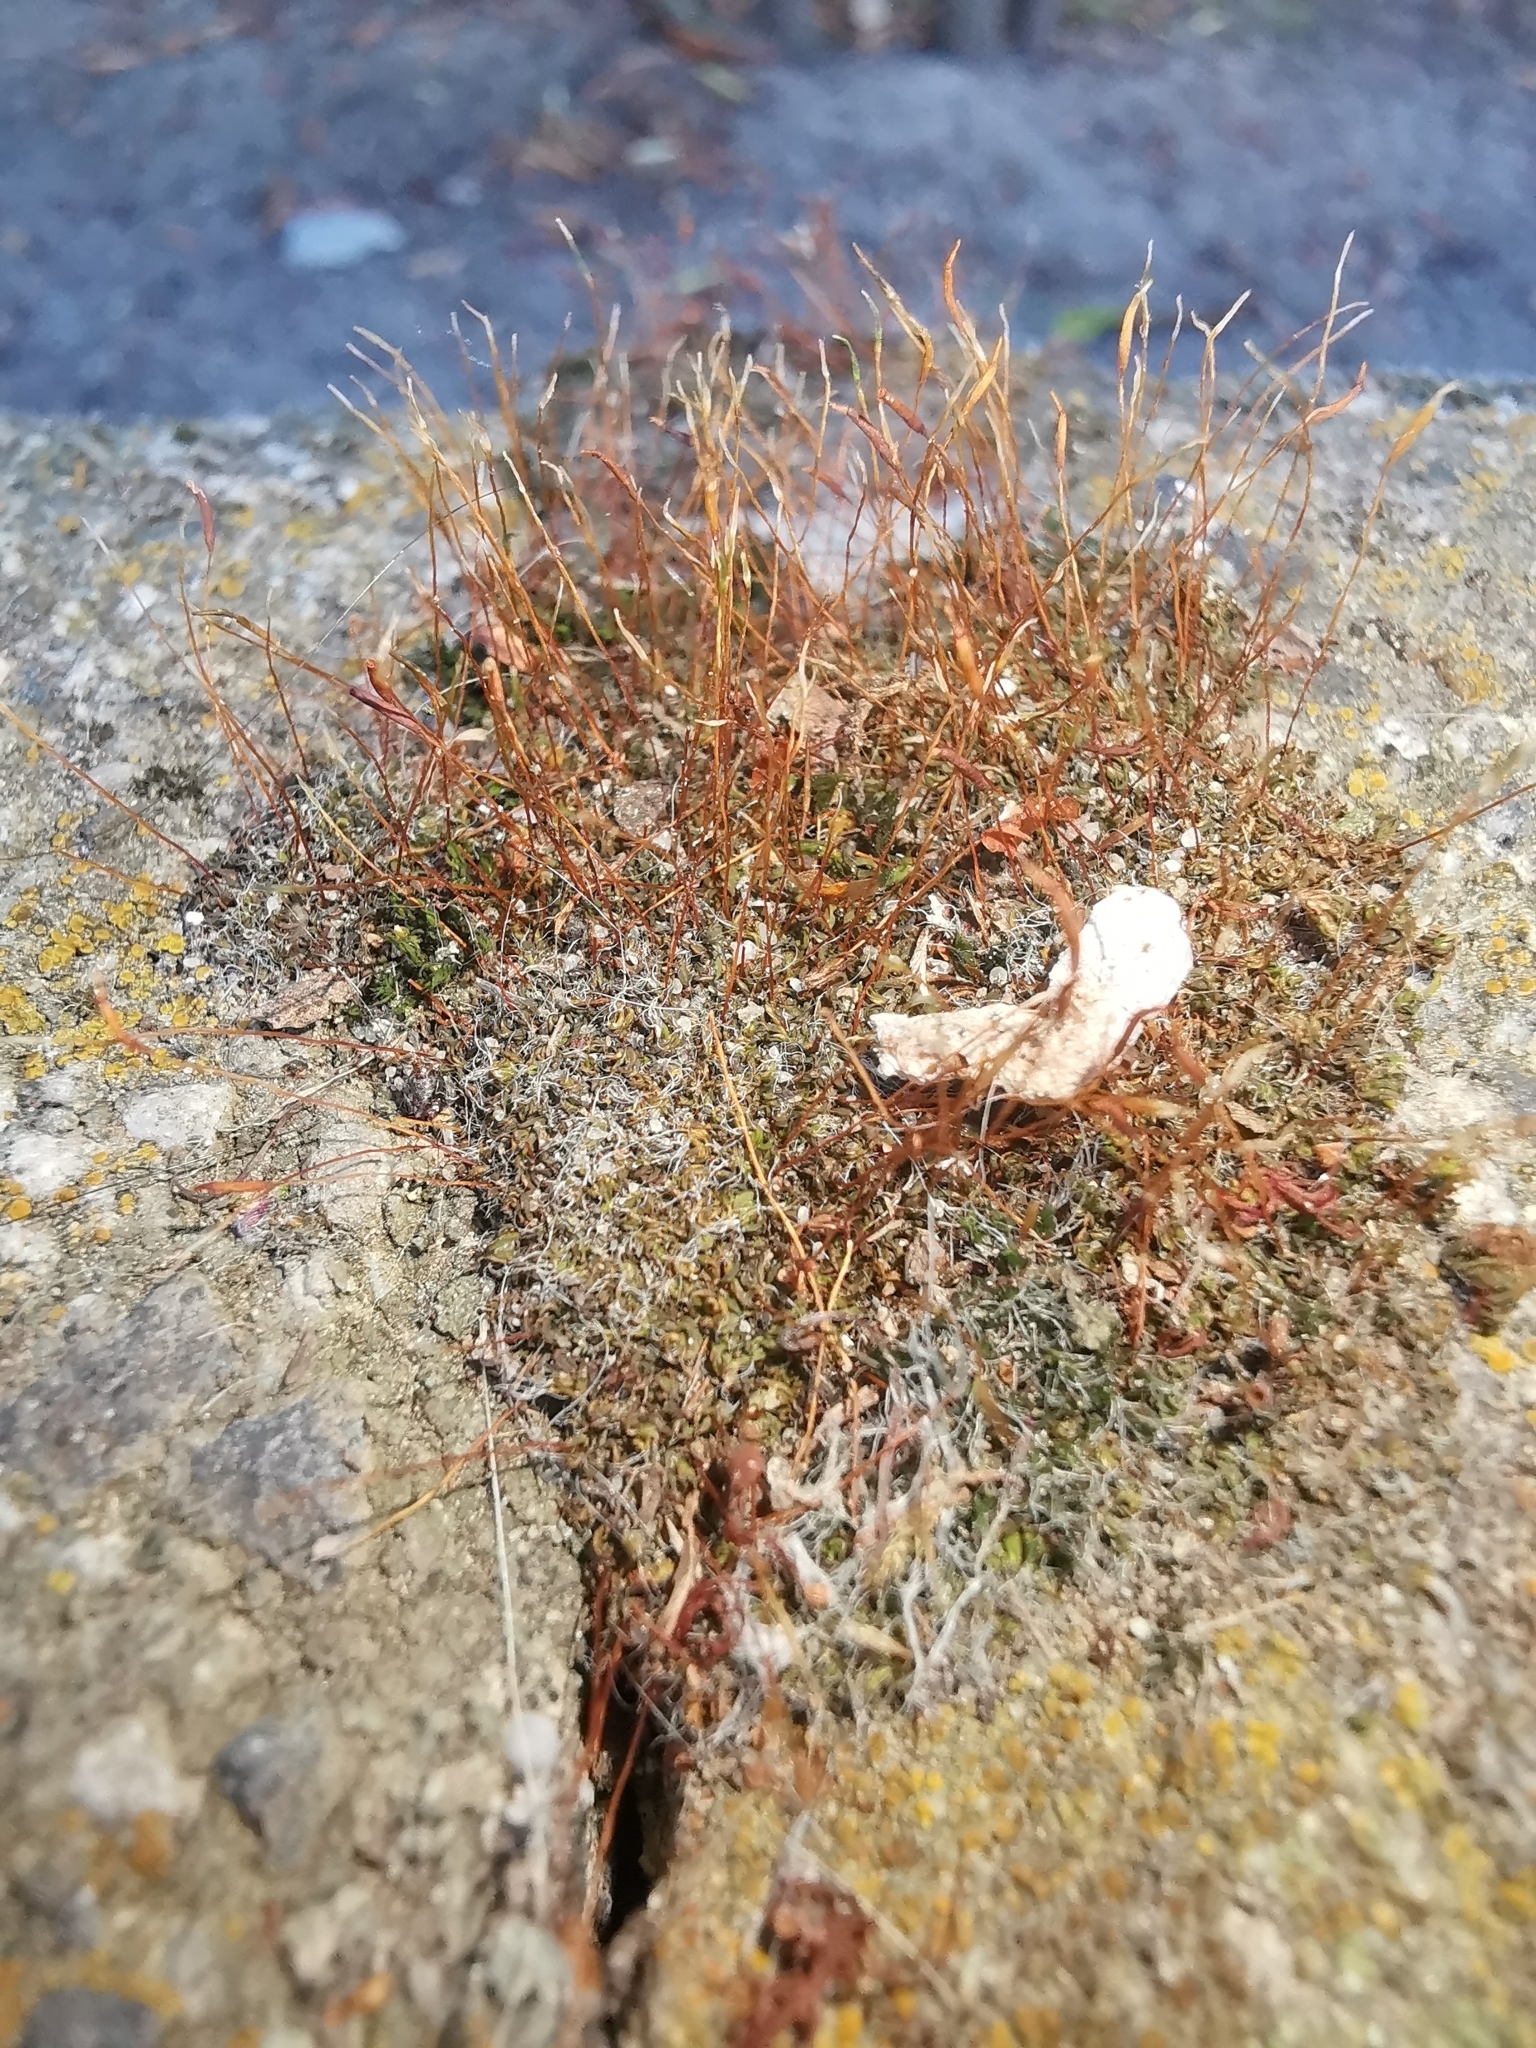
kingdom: Plantae
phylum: Bryophyta
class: Bryopsida
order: Pottiales
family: Pottiaceae
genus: Tortula
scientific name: Tortula muralis
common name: Wall screw-moss
